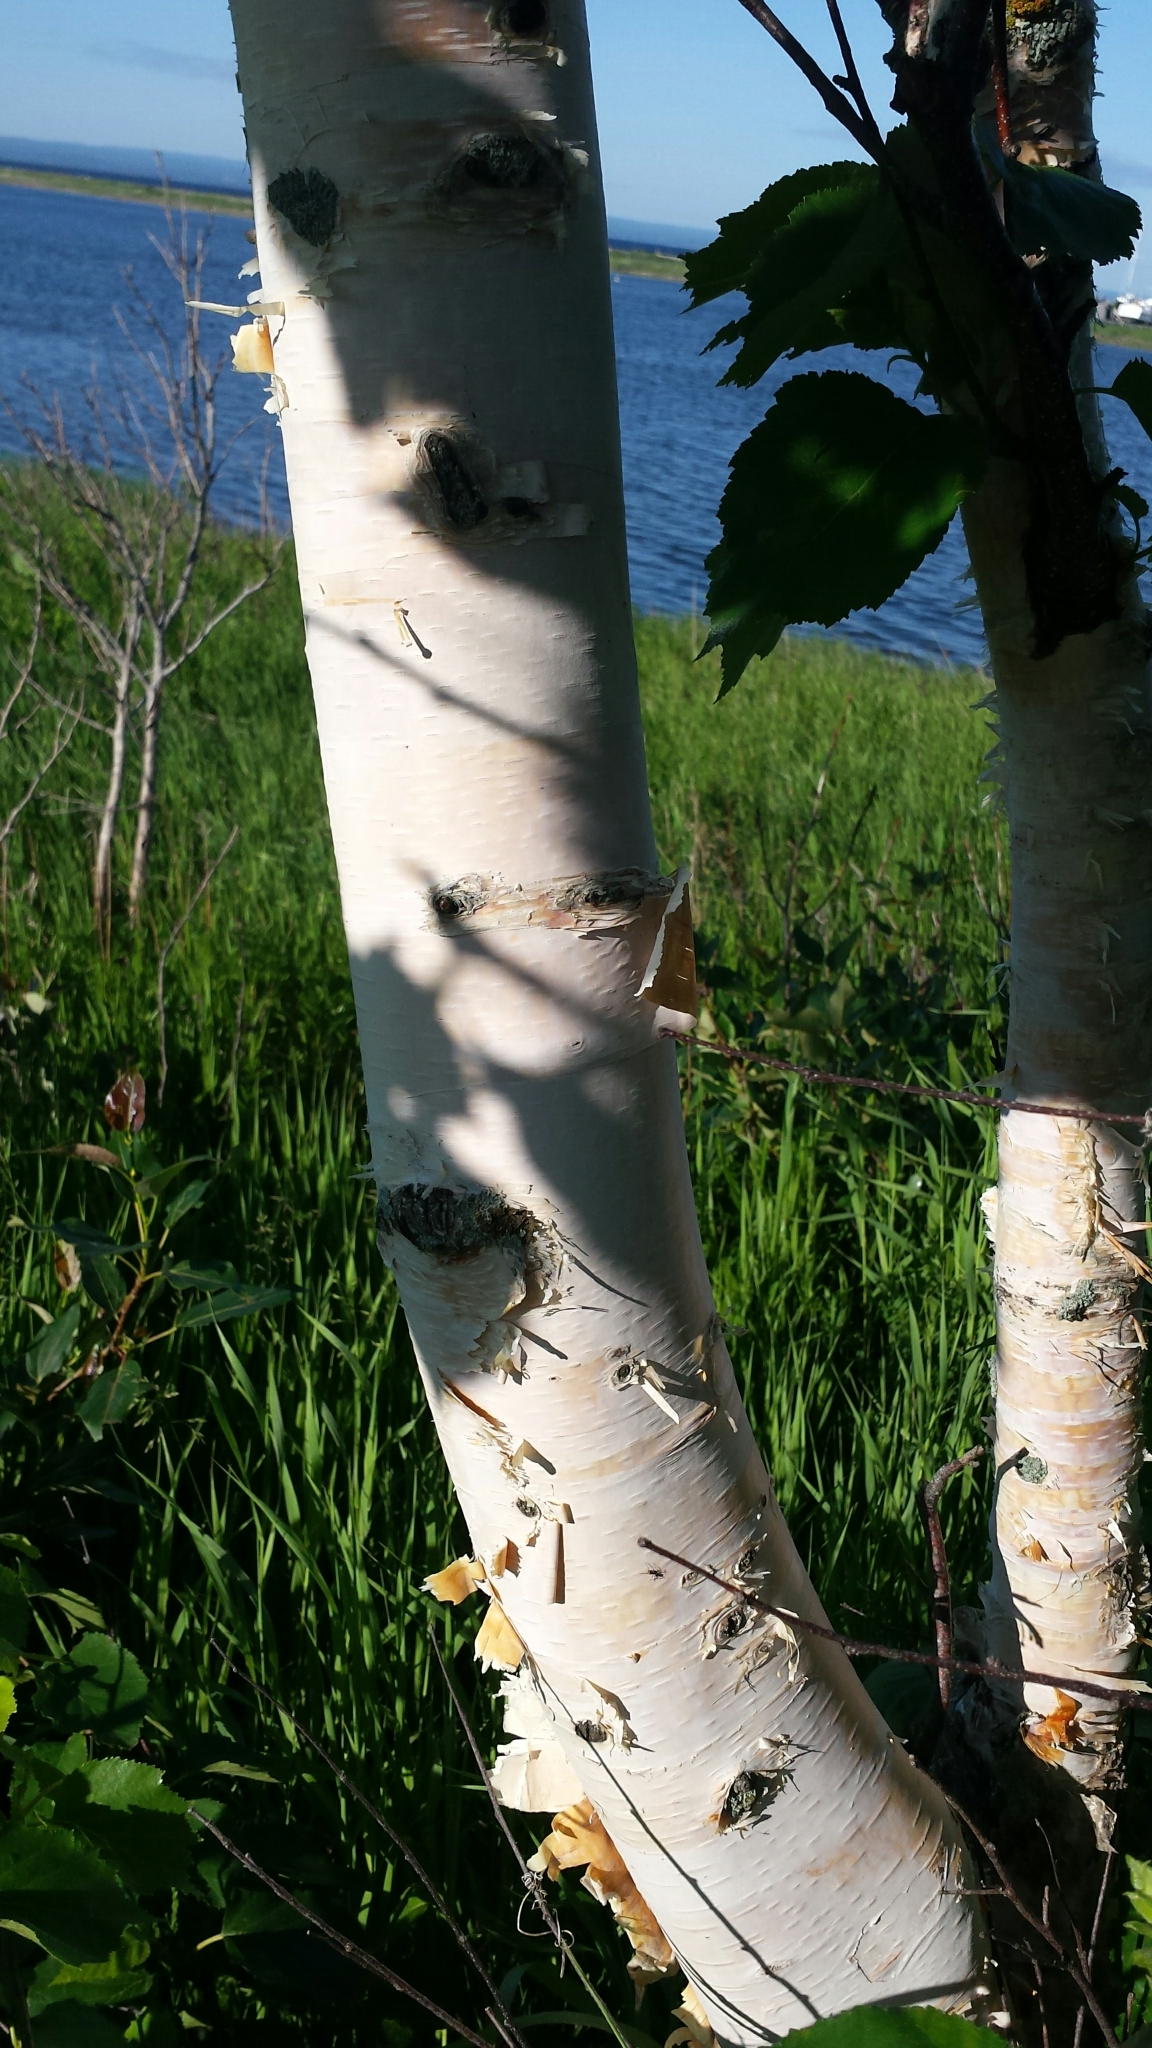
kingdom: Plantae
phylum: Tracheophyta
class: Magnoliopsida
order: Fagales
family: Betulaceae
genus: Betula
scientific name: Betula papyrifera
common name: Paper birch
